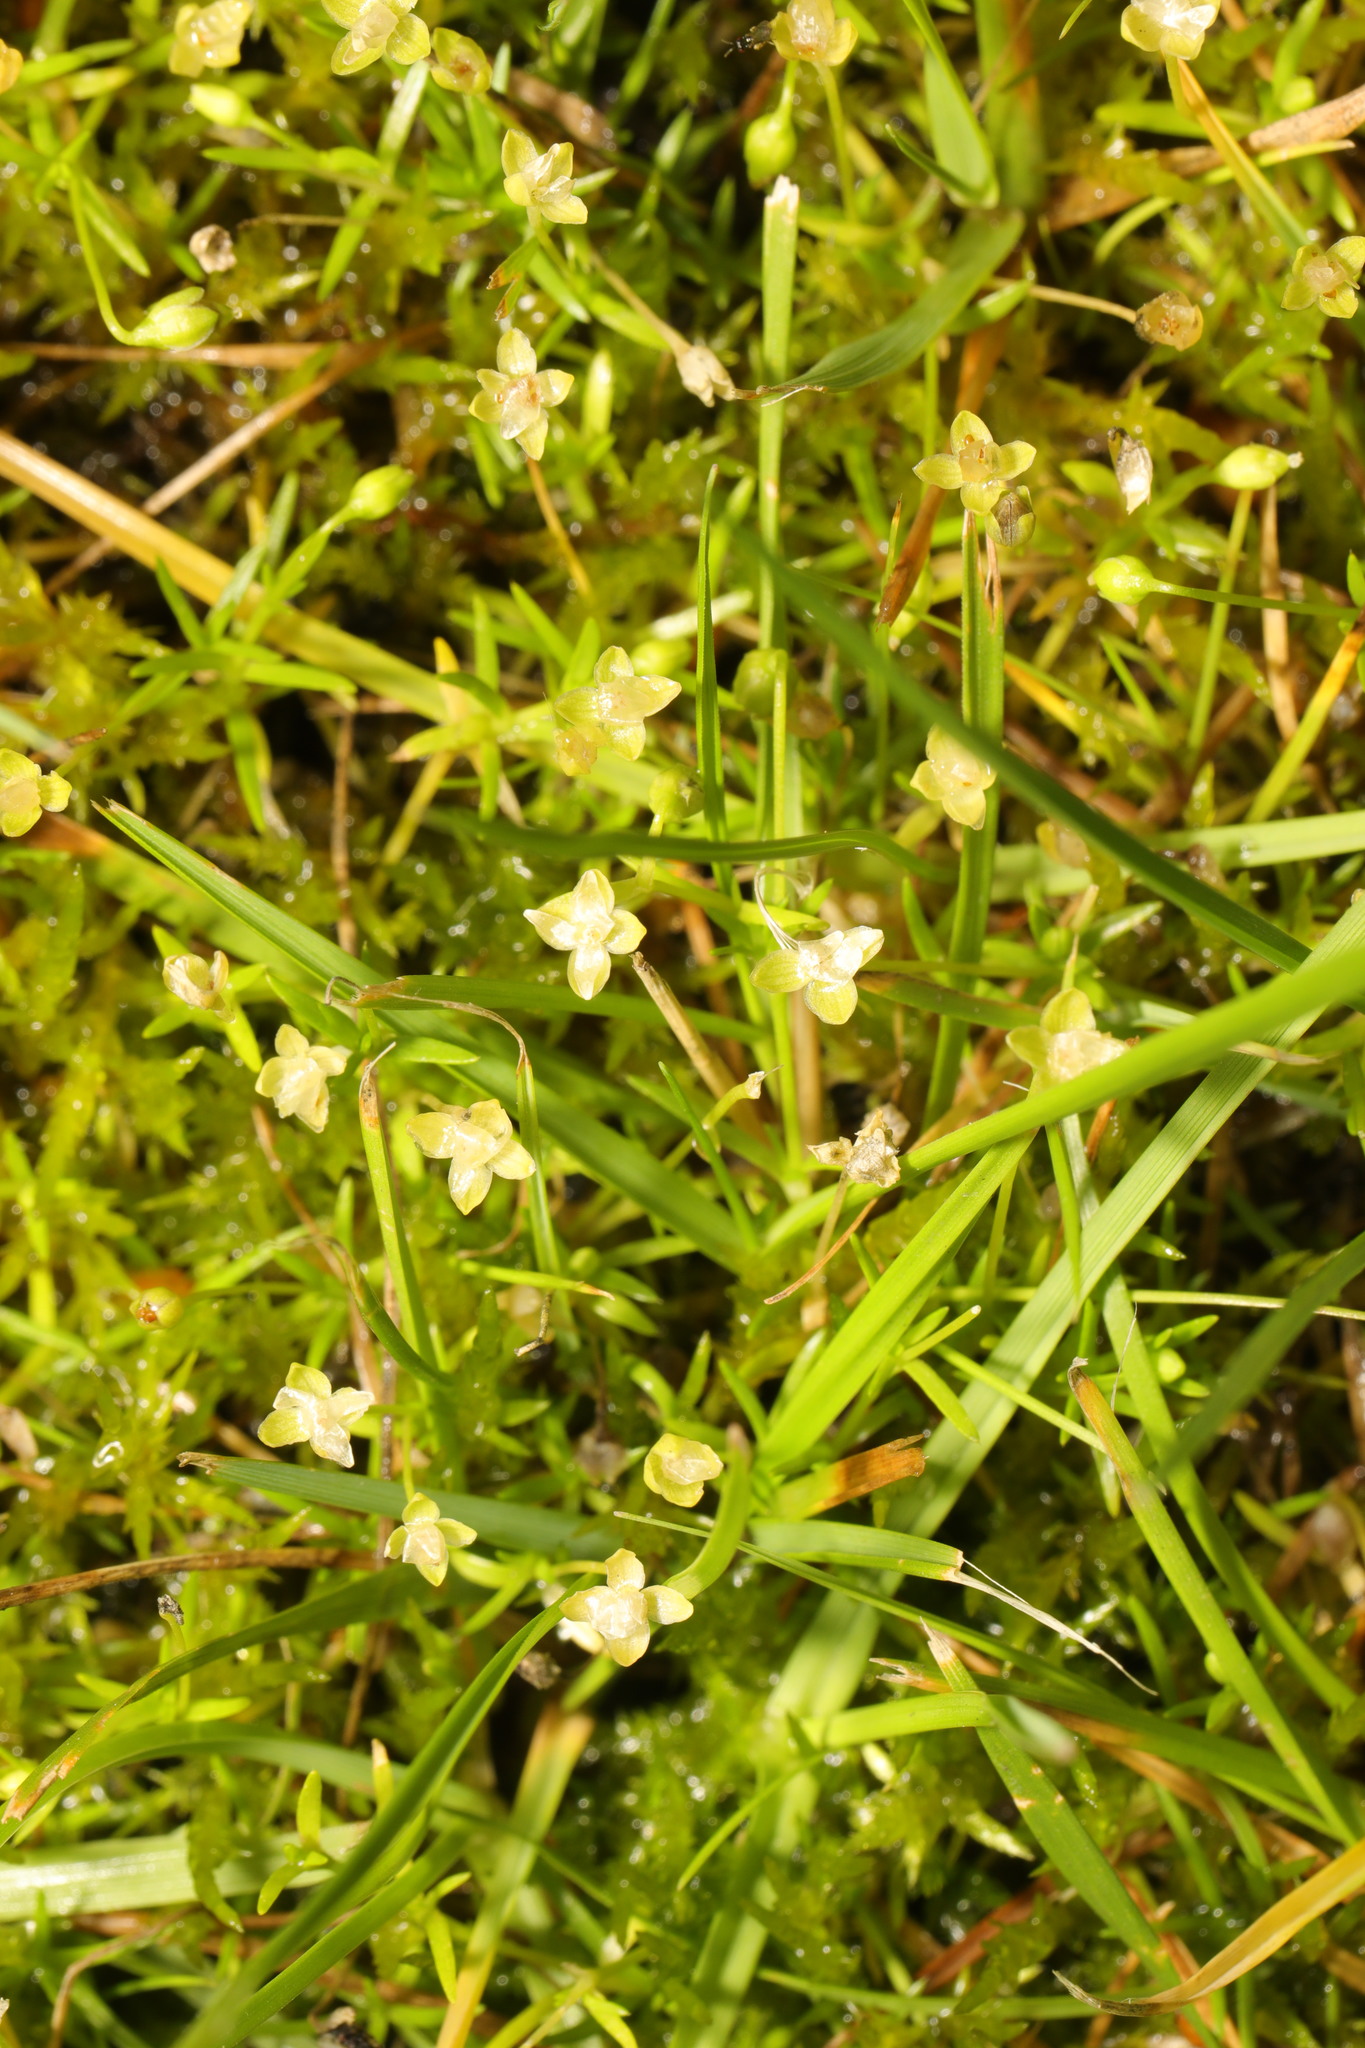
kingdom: Plantae
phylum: Tracheophyta
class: Magnoliopsida
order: Caryophyllales
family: Caryophyllaceae
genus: Sagina
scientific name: Sagina procumbens
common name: Procumbent pearlwort
